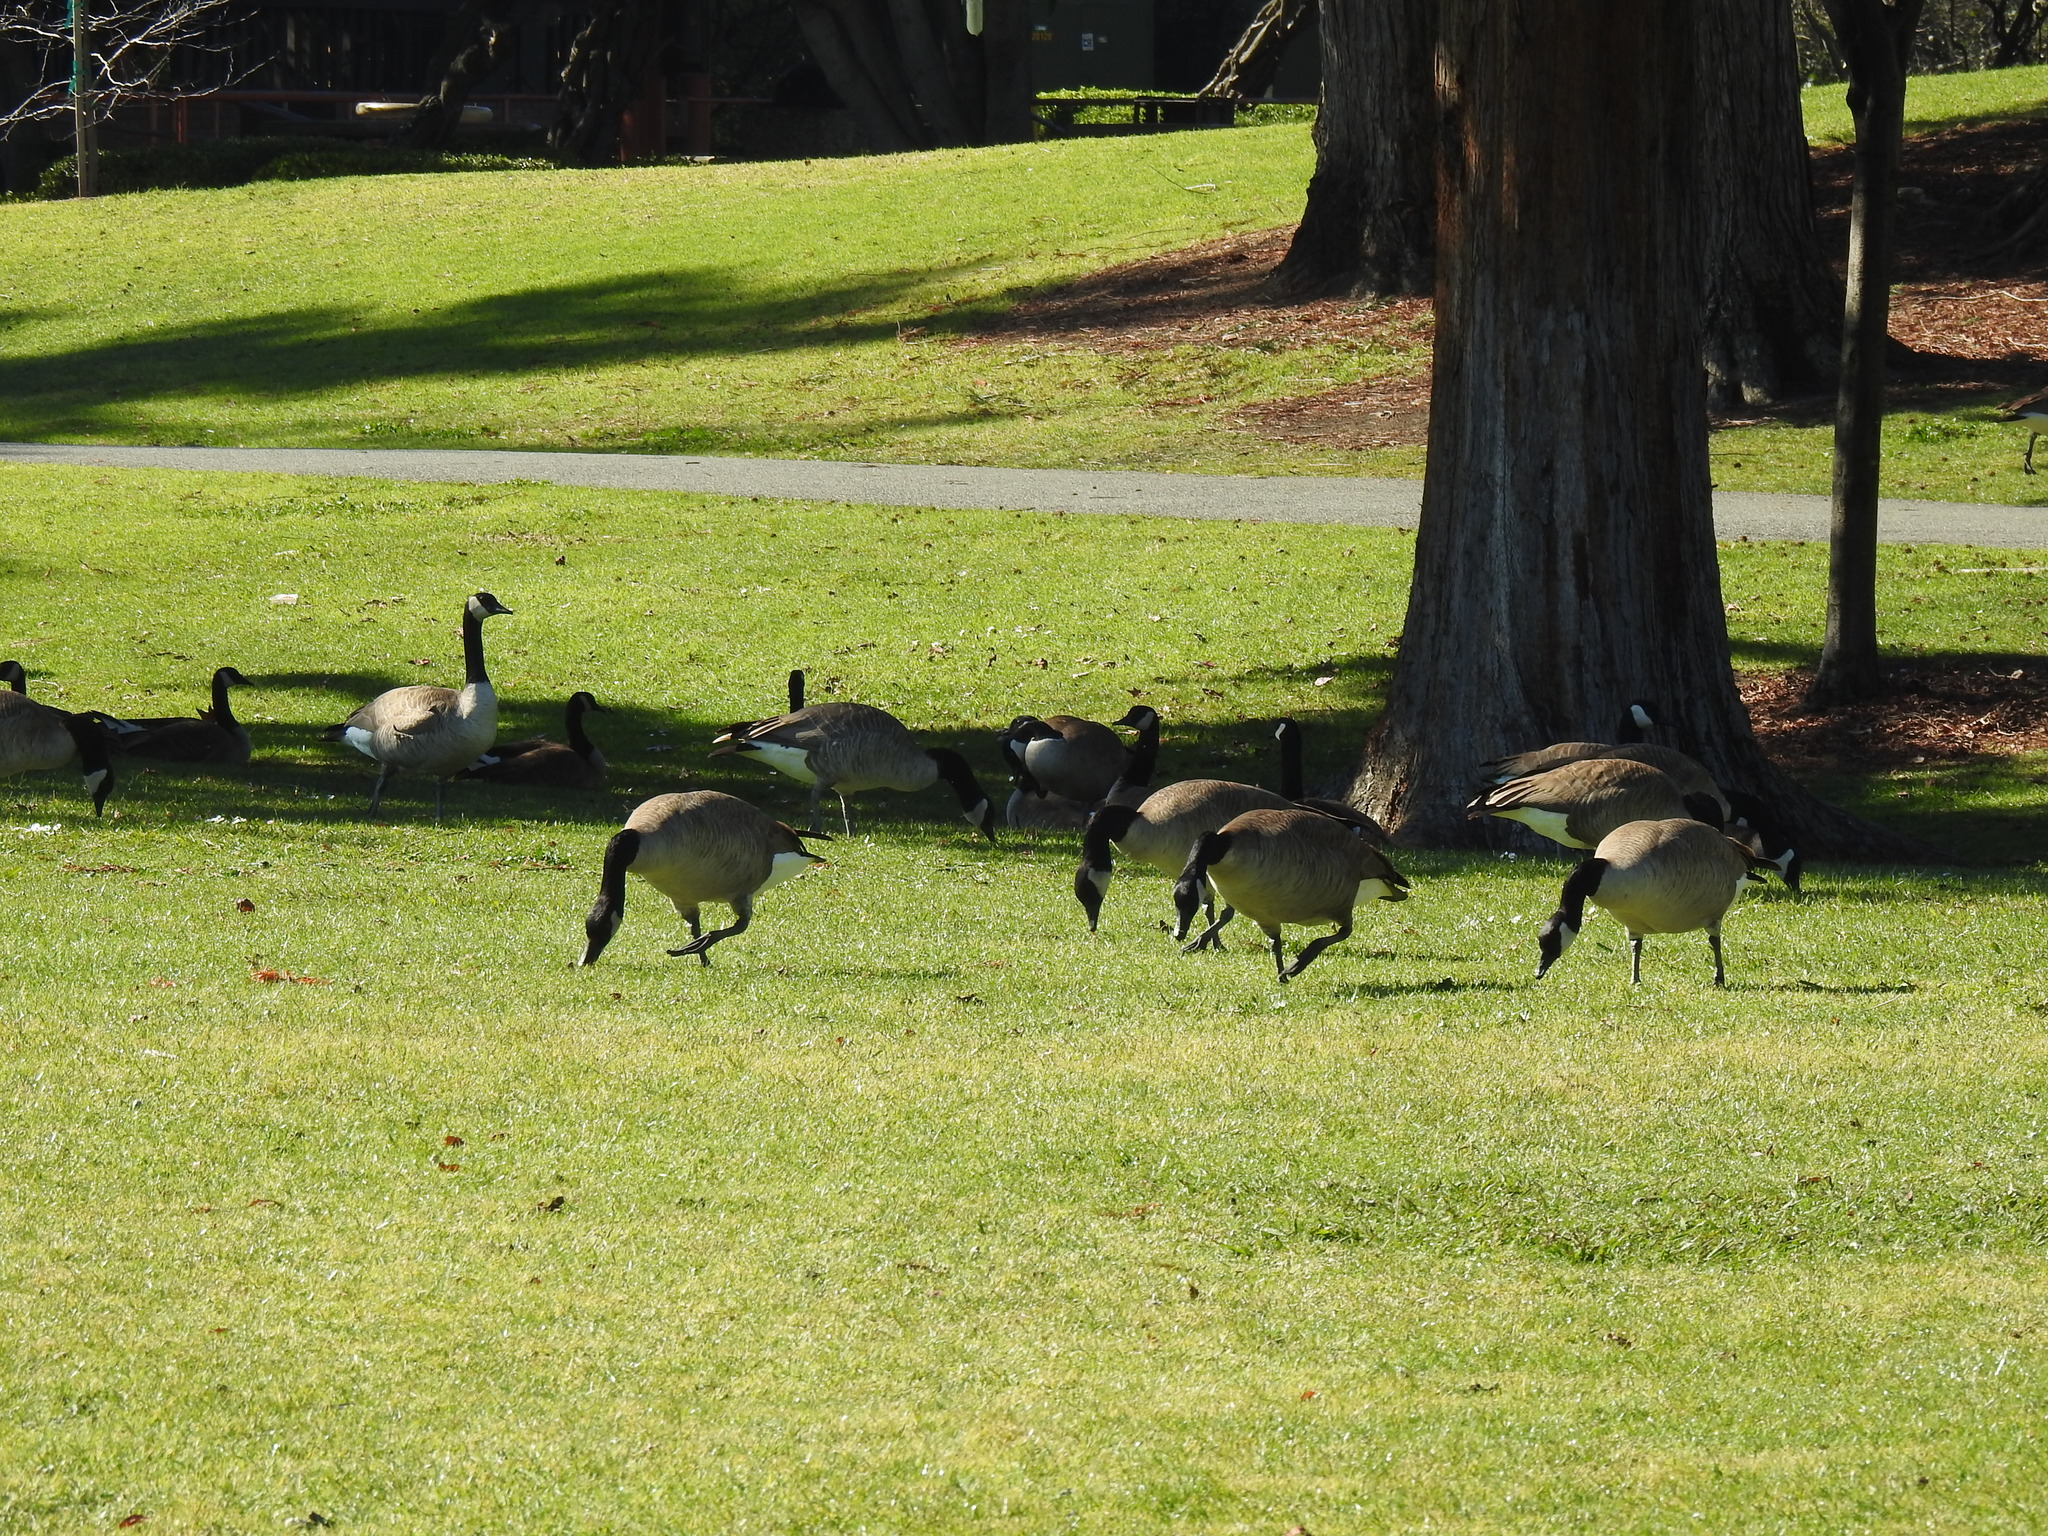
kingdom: Animalia
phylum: Chordata
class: Aves
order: Anseriformes
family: Anatidae
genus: Branta
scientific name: Branta canadensis
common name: Canada goose
